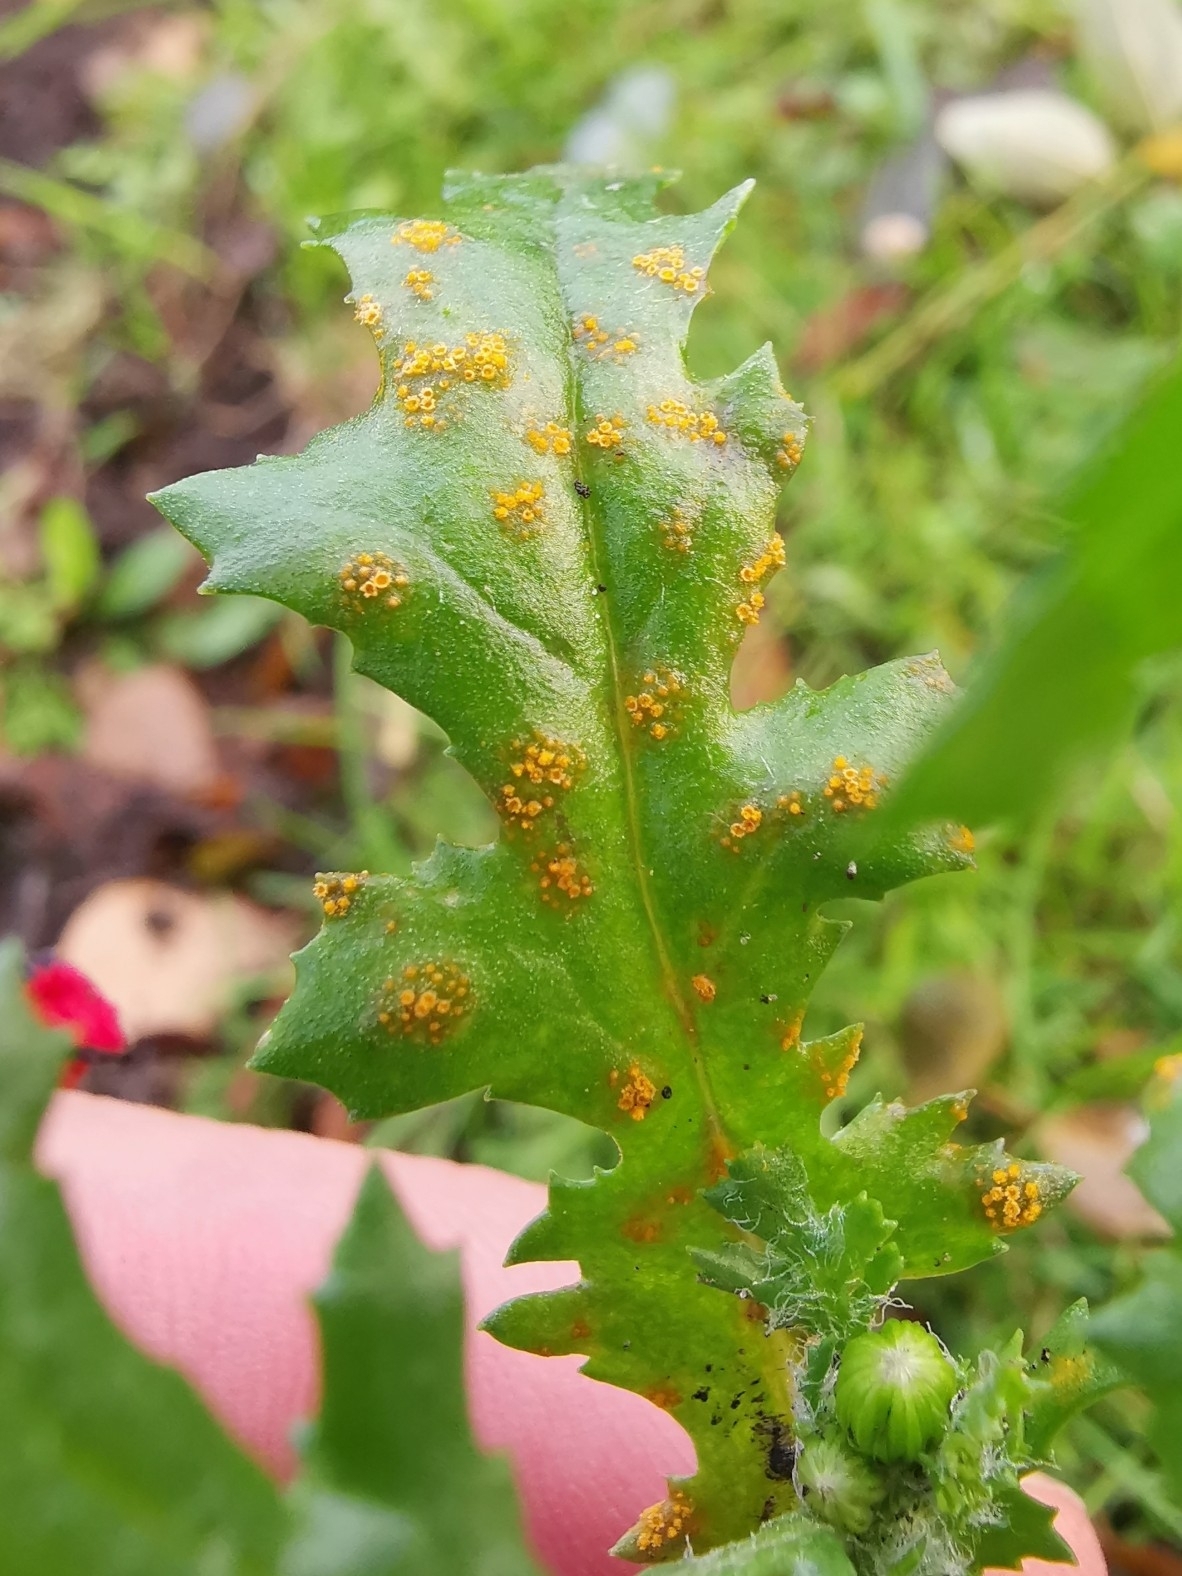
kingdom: Fungi
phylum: Basidiomycota
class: Pucciniomycetes
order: Pucciniales
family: Pucciniaceae
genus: Puccinia
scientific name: Puccinia lagenophorae
